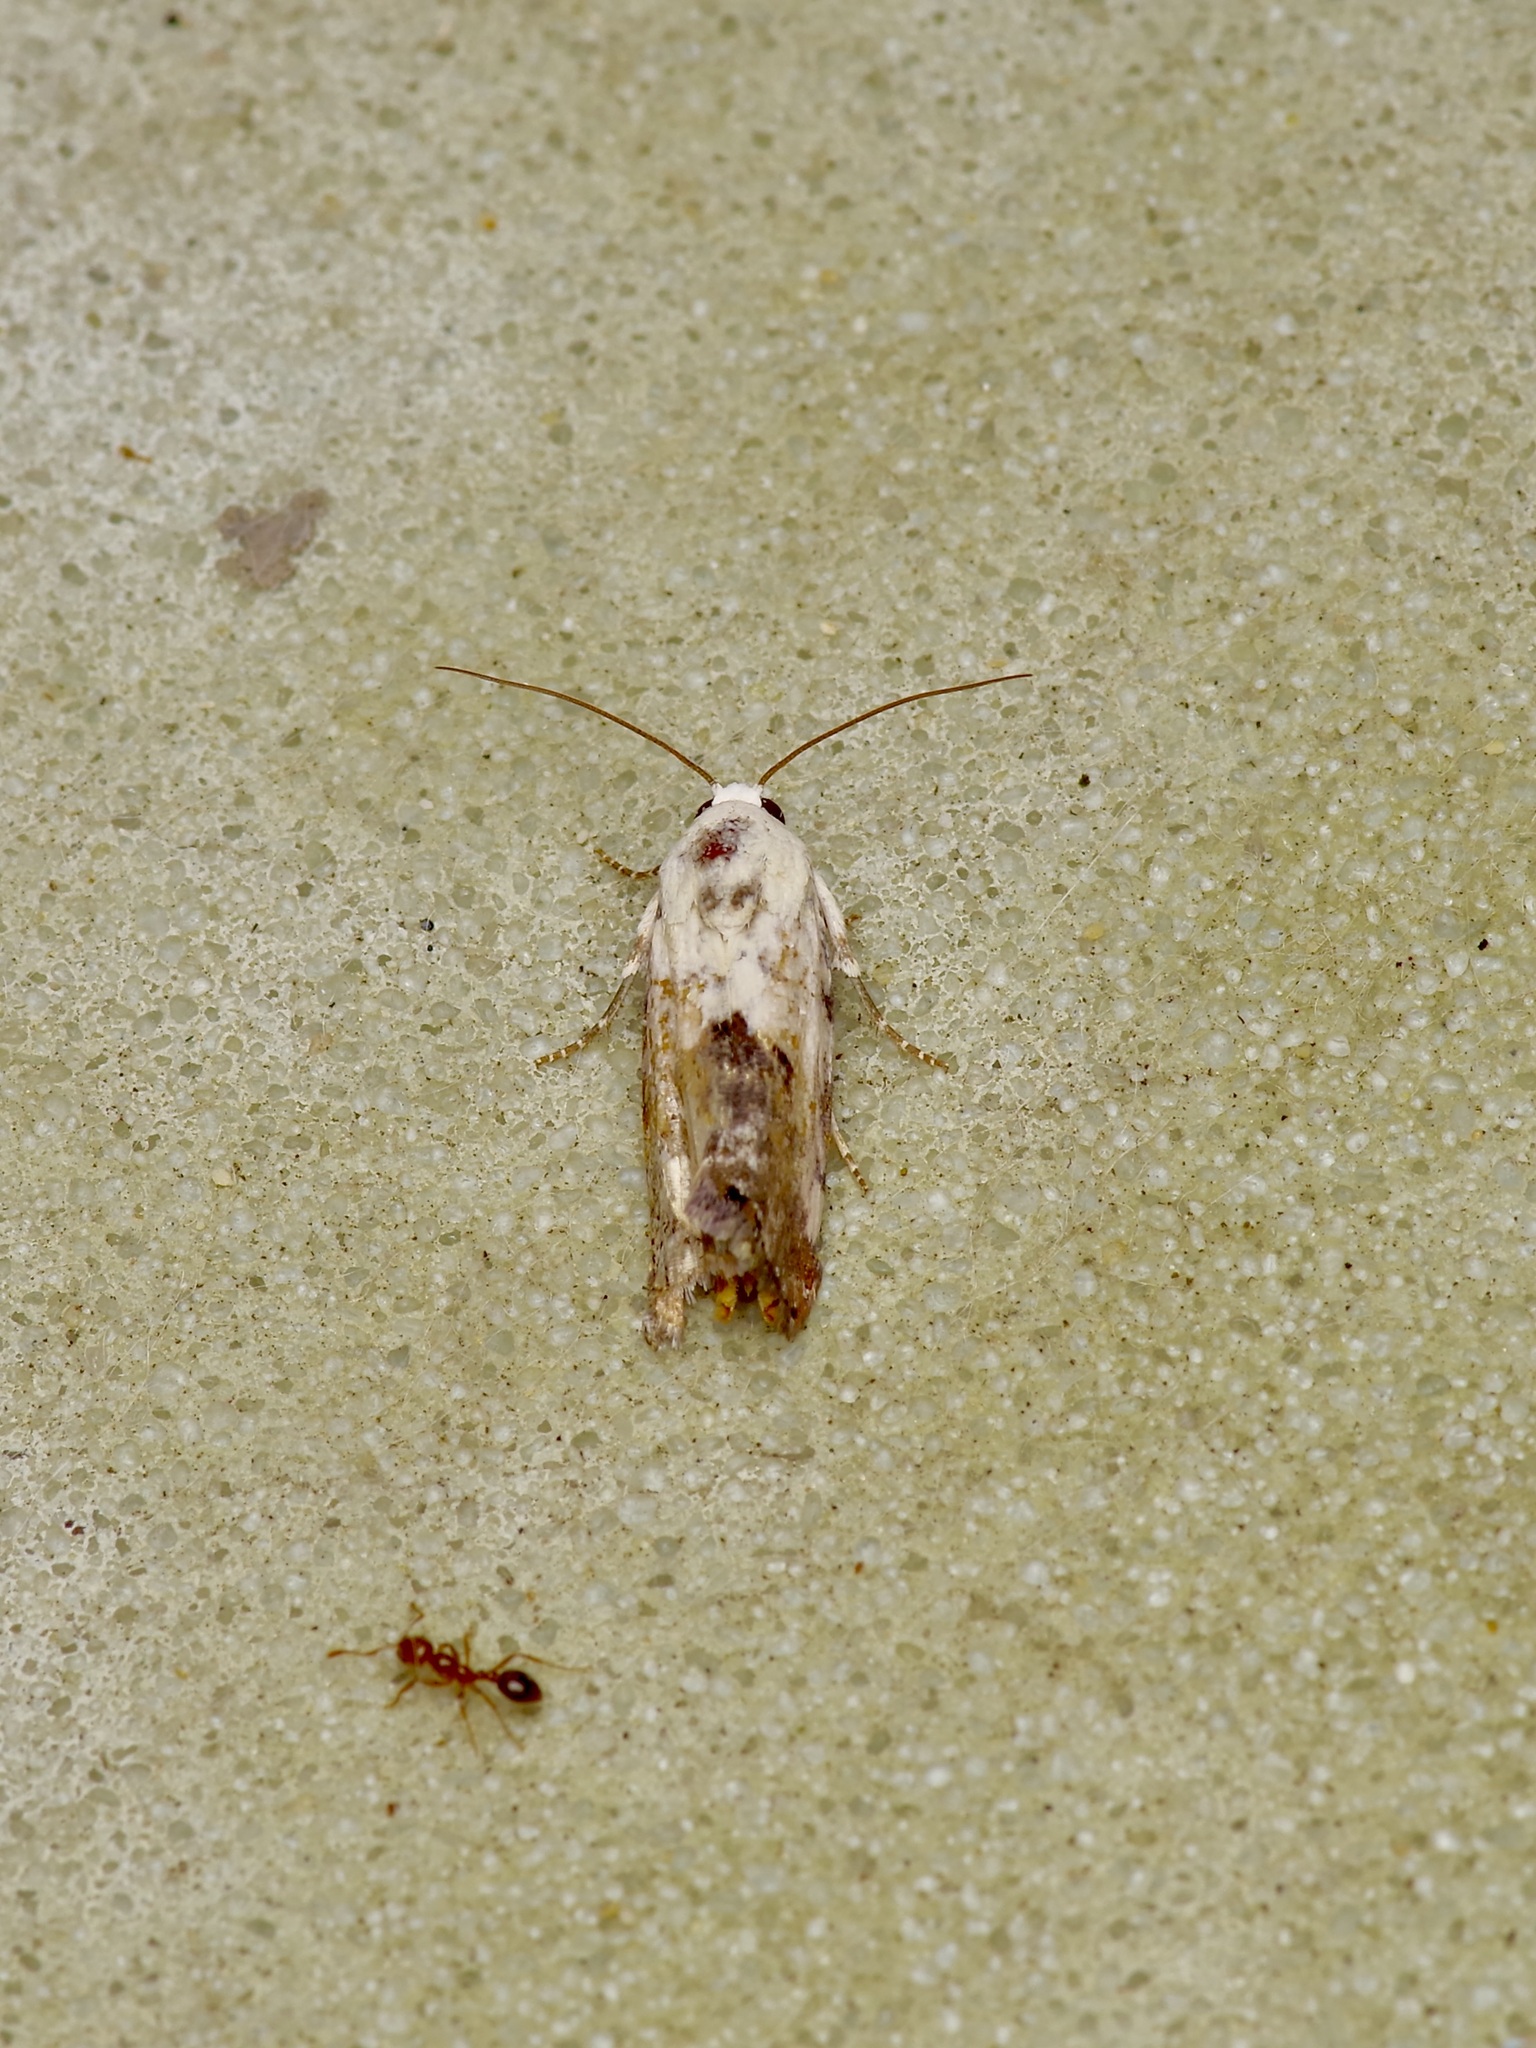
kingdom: Animalia
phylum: Arthropoda
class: Insecta
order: Lepidoptera
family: Noctuidae
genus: Acontia
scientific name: Acontia phecolisca
